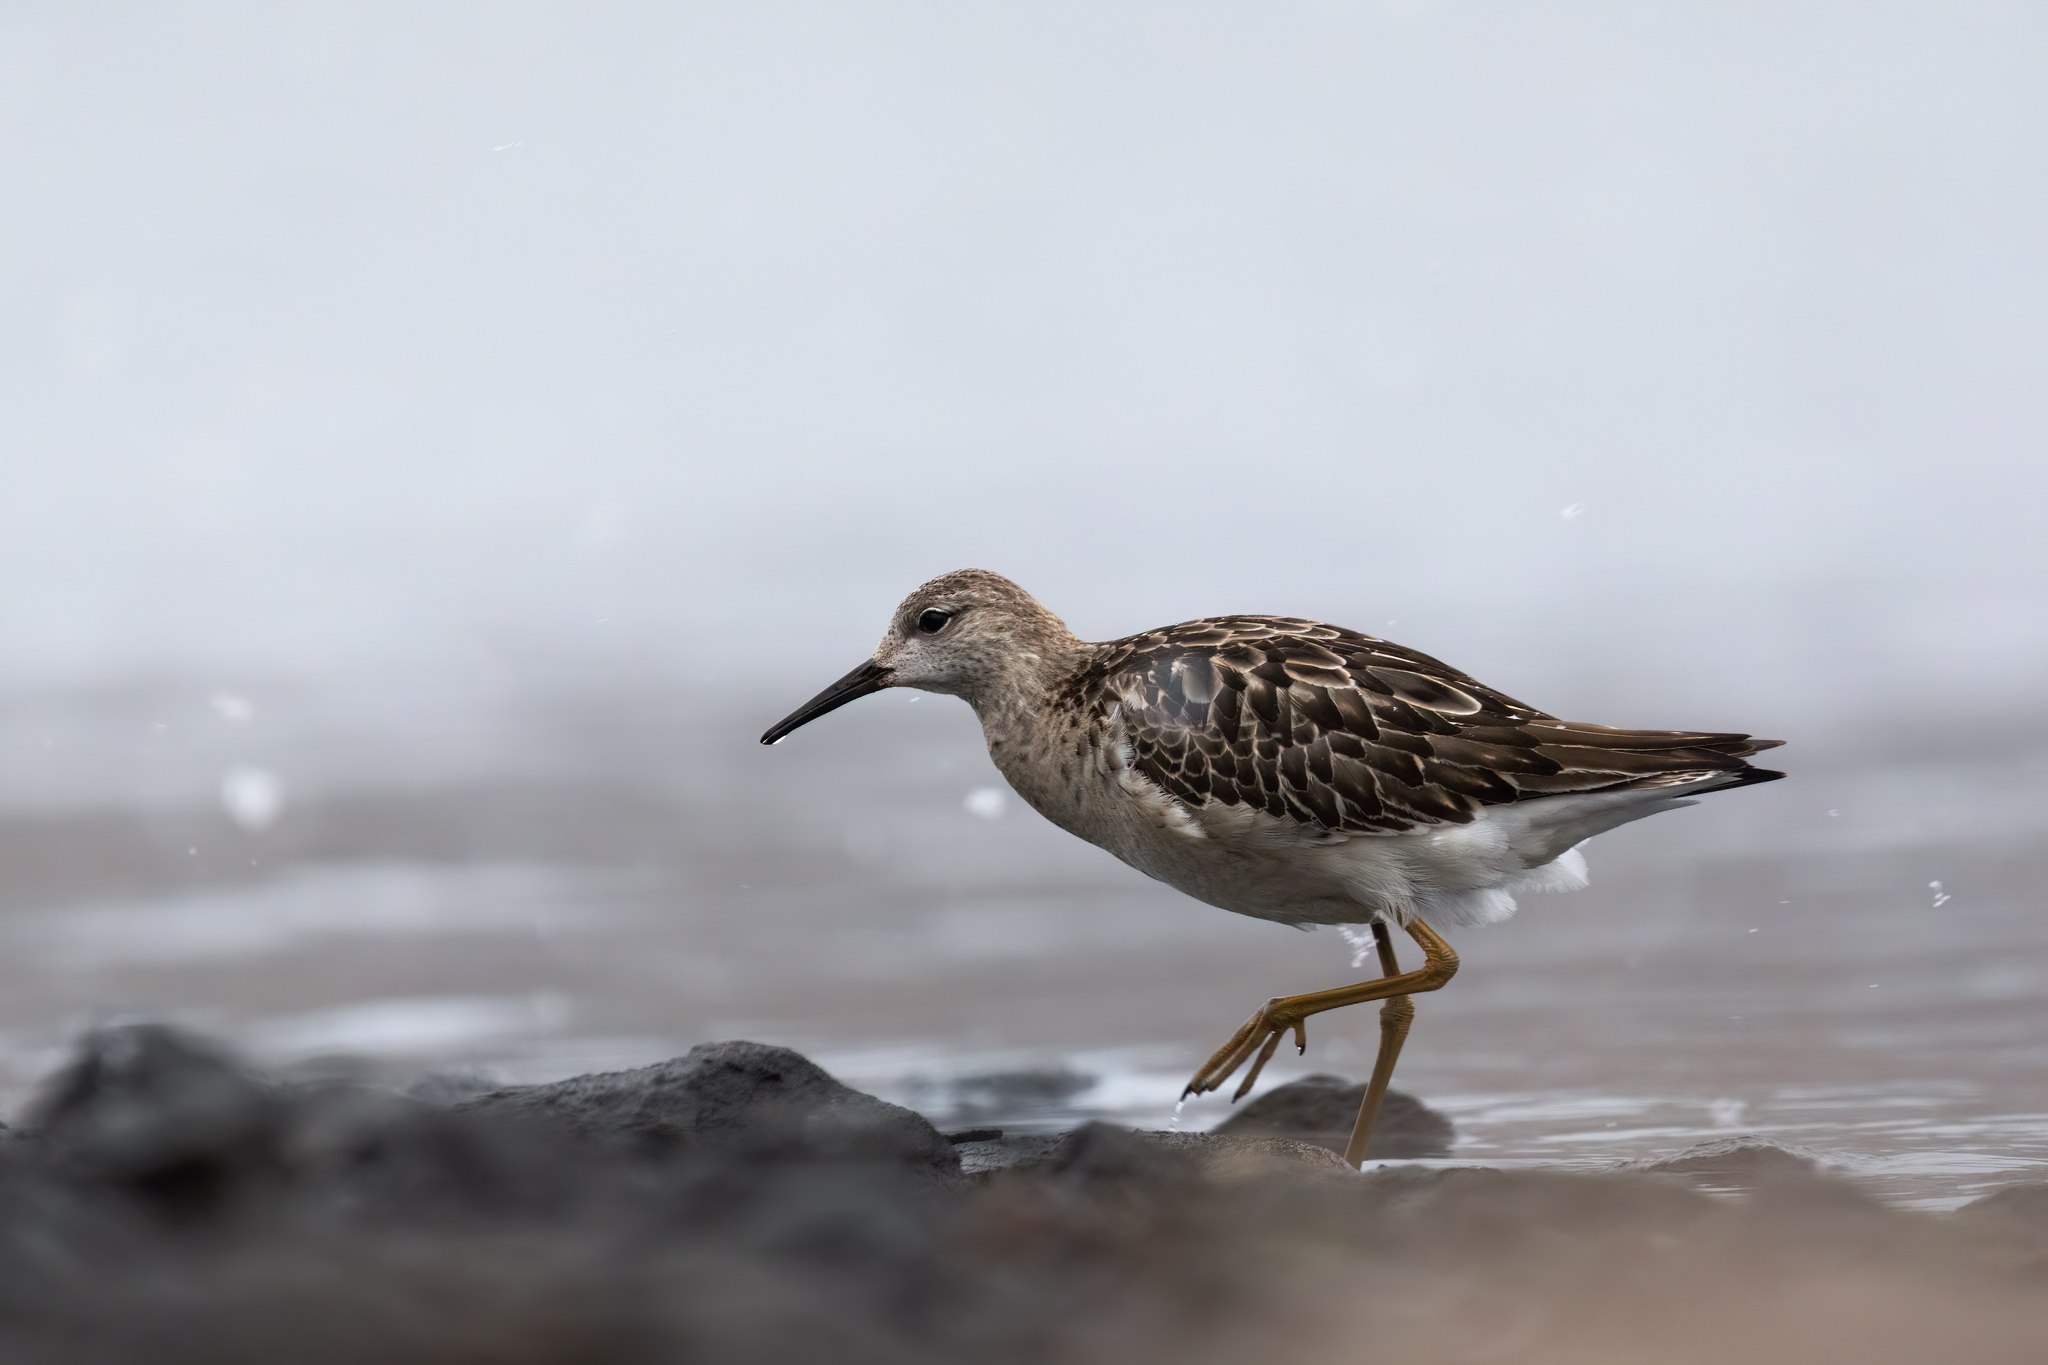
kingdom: Animalia
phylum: Chordata
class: Aves
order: Charadriiformes
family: Scolopacidae
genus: Calidris
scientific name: Calidris pugnax
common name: Ruff
